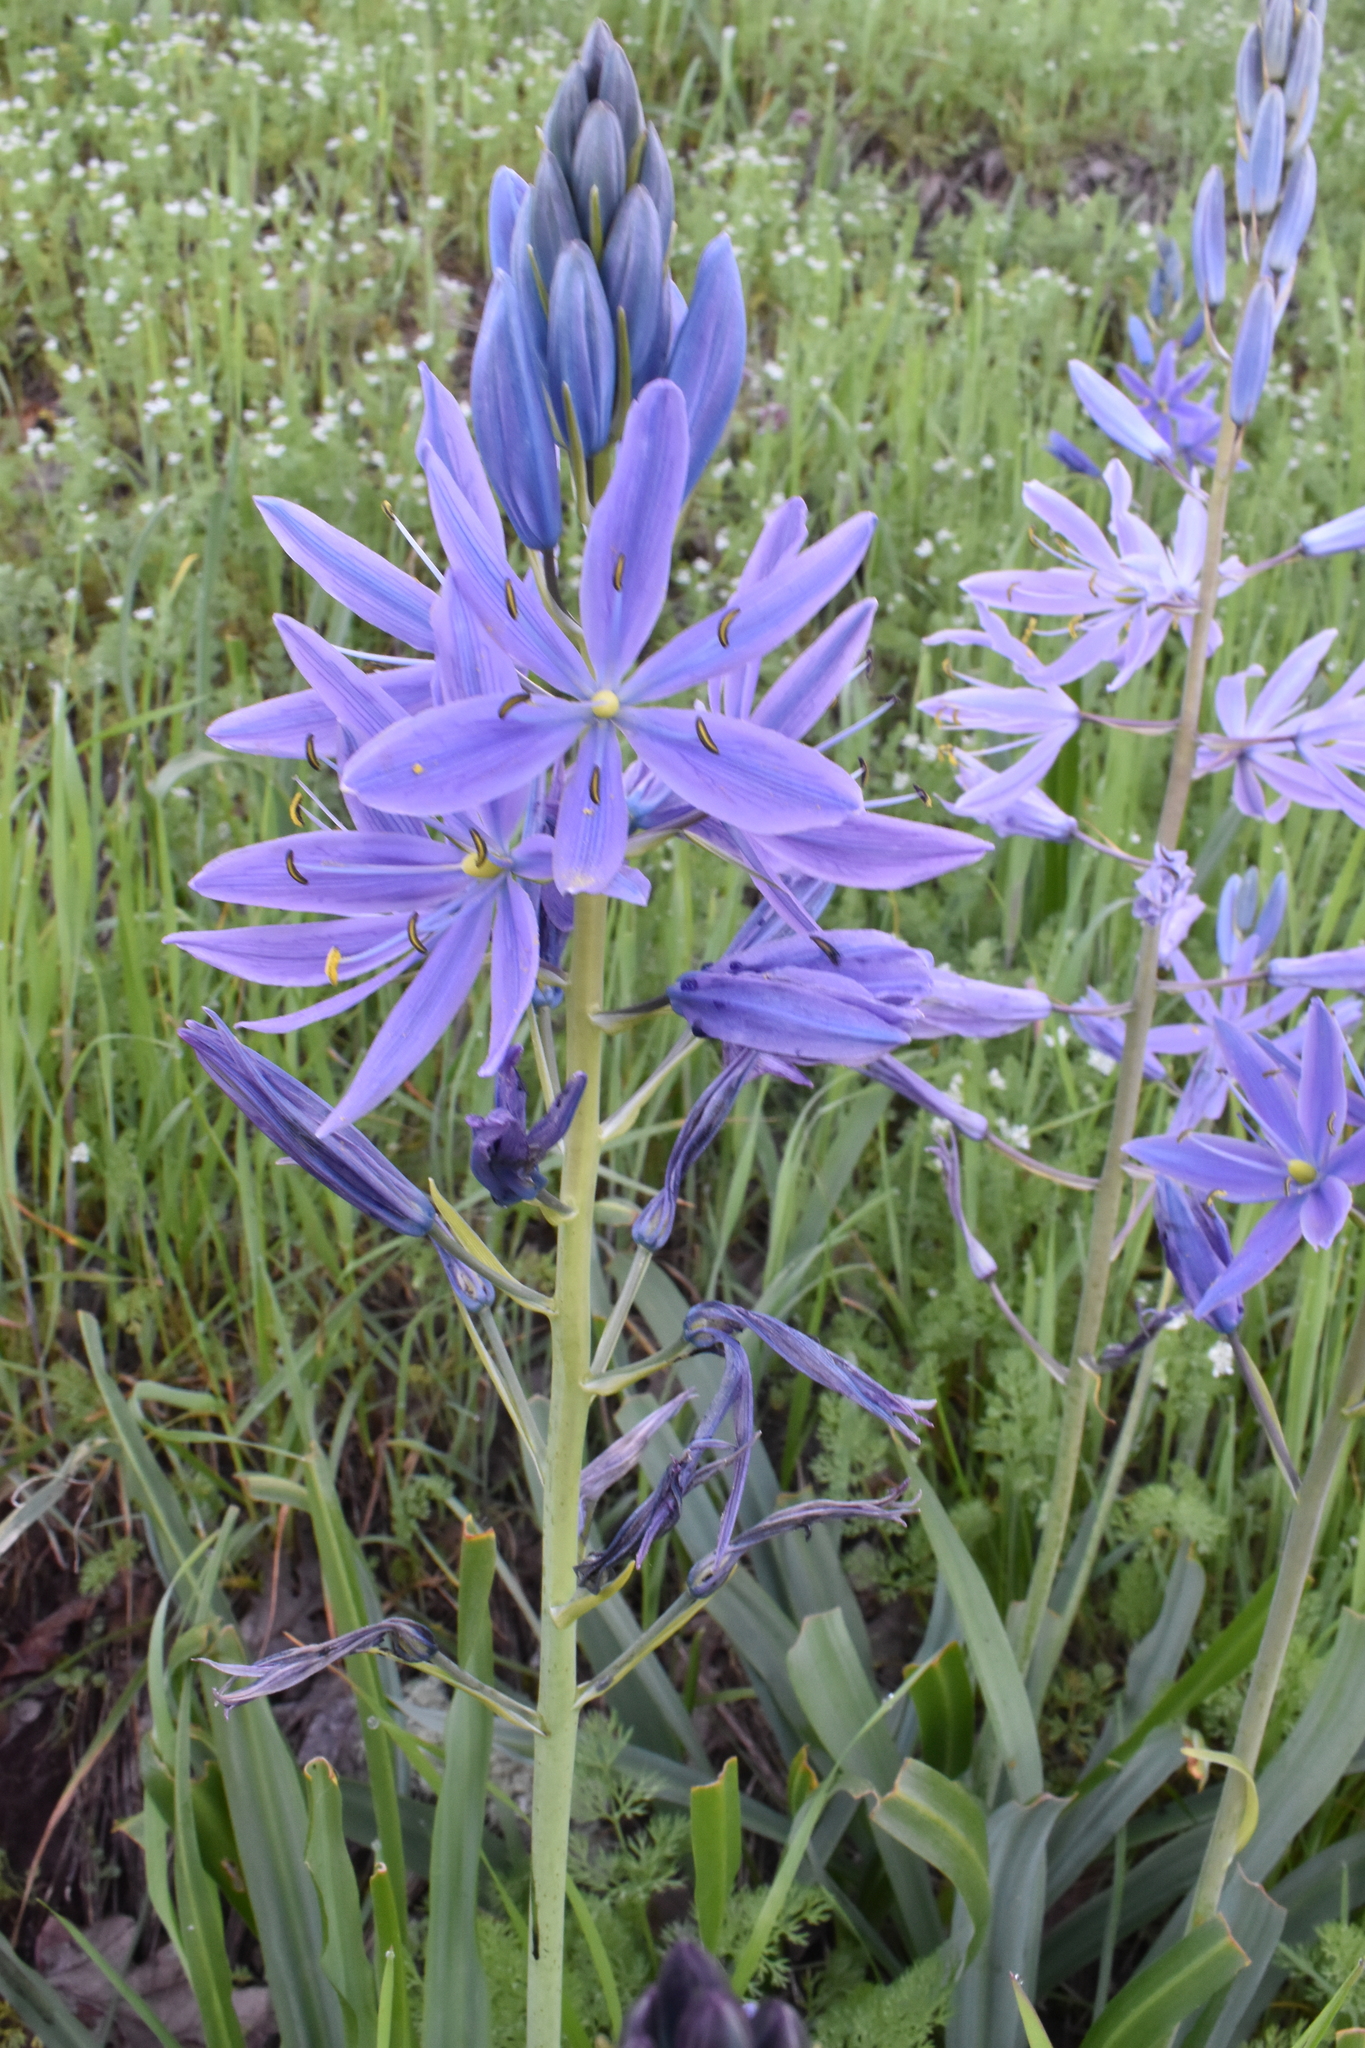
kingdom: Plantae
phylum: Tracheophyta
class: Liliopsida
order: Asparagales
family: Asparagaceae
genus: Camassia
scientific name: Camassia leichtlinii
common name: Leichtlin's camas
